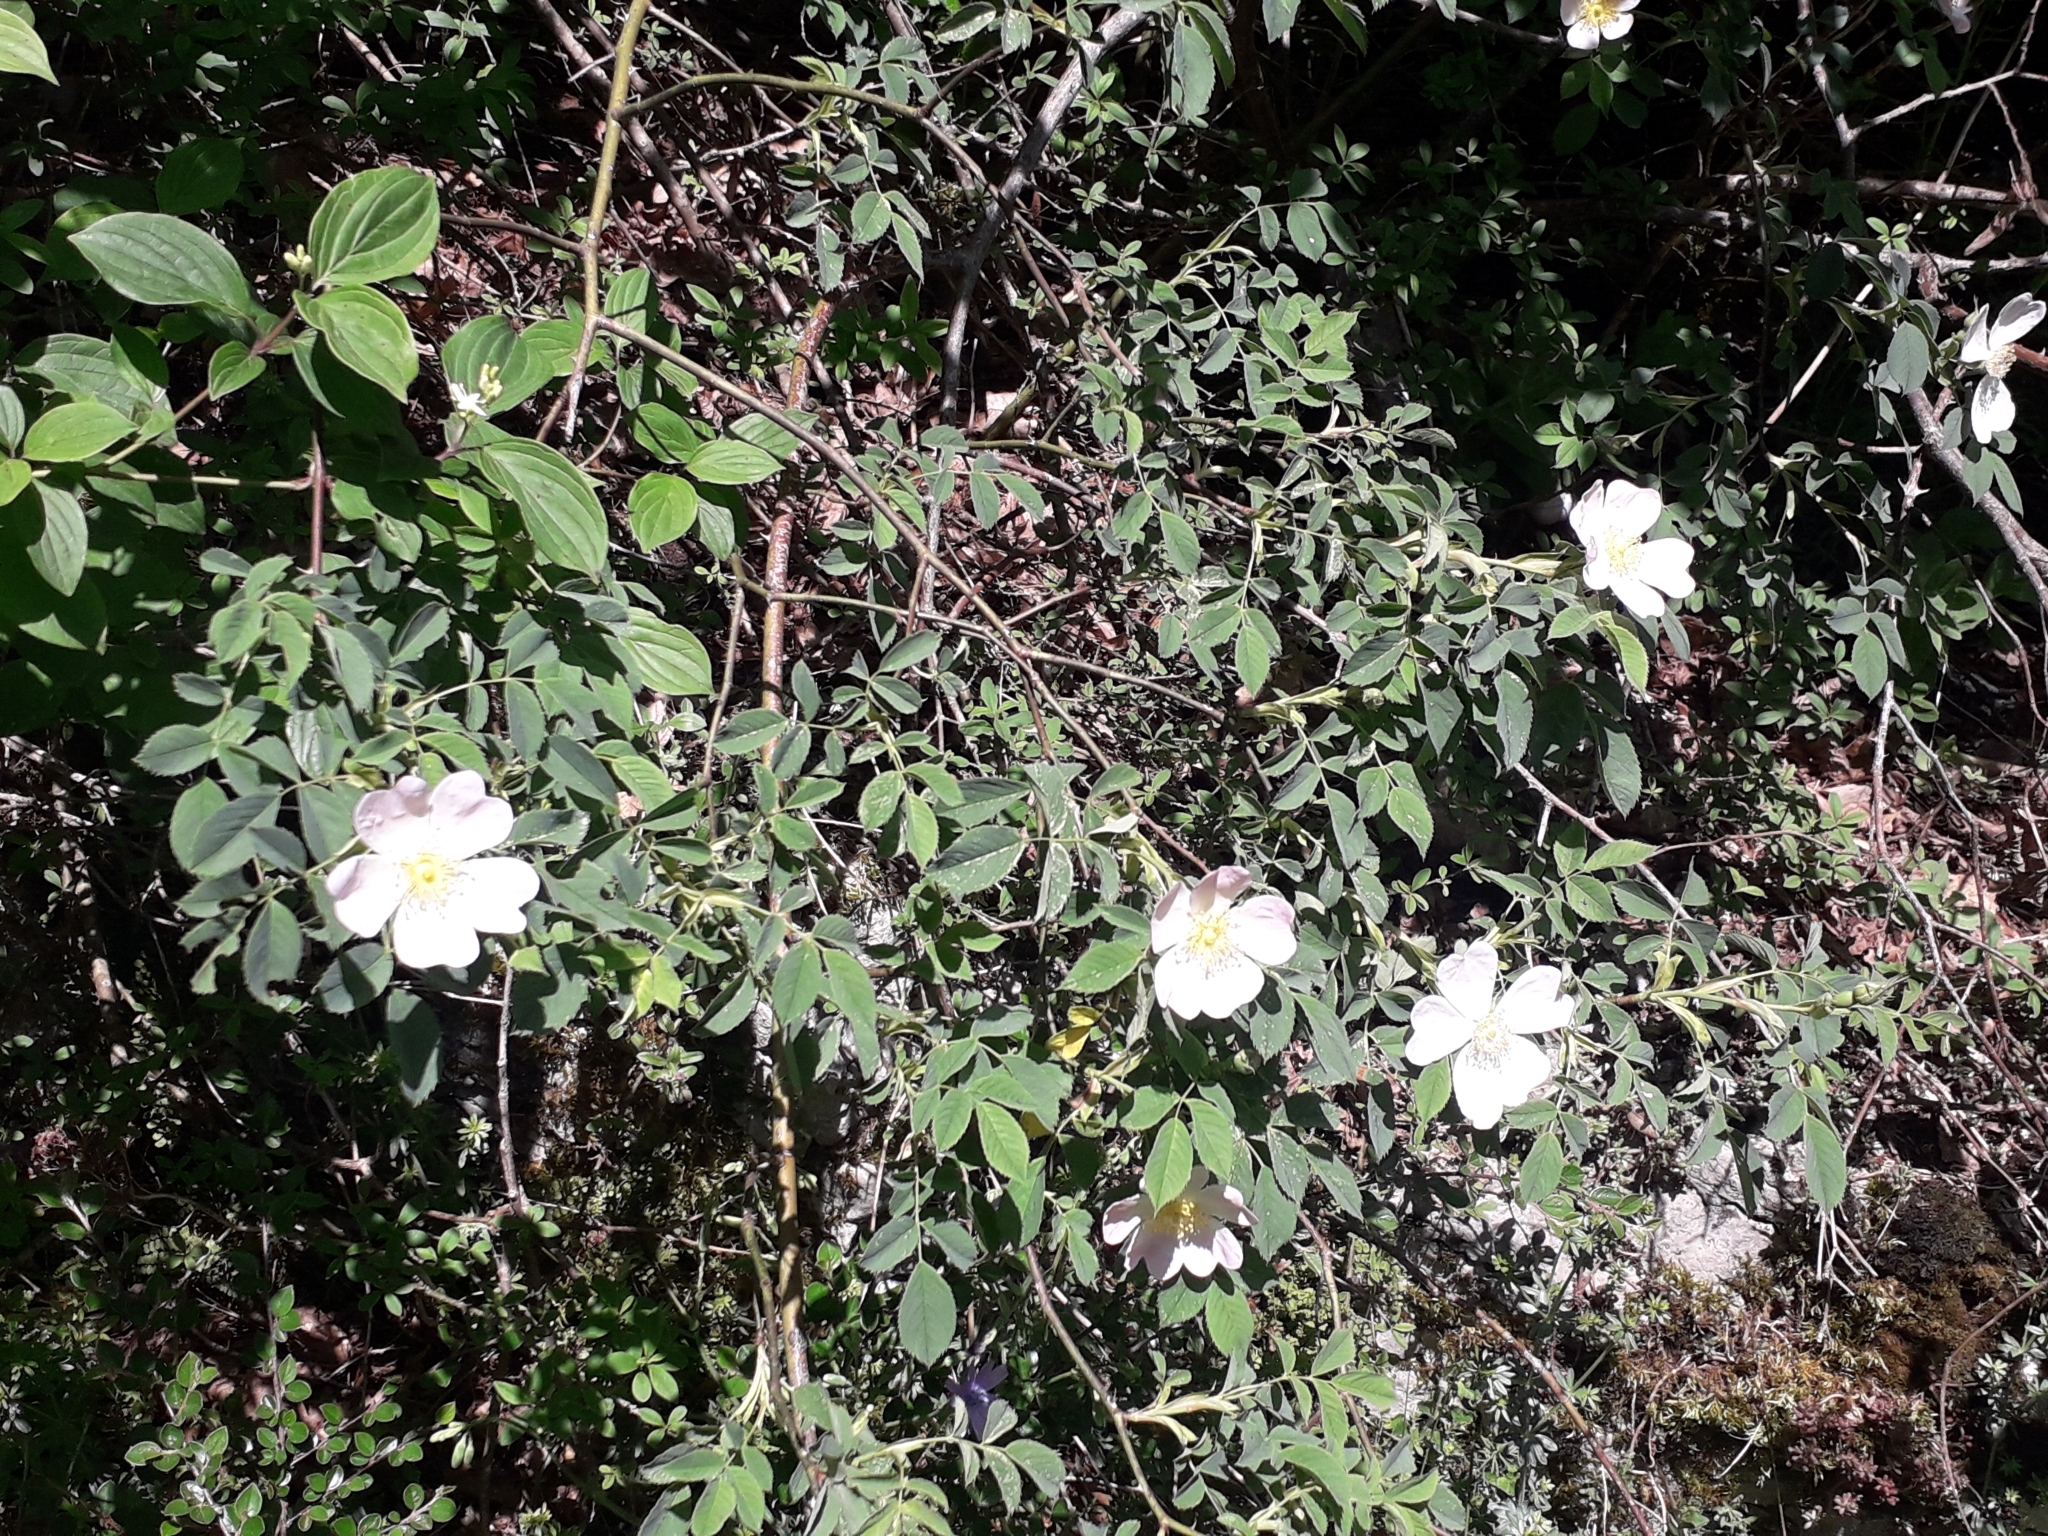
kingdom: Plantae
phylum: Tracheophyta
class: Magnoliopsida
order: Rosales
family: Rosaceae
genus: Rosa
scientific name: Rosa canina
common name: Dog rose
